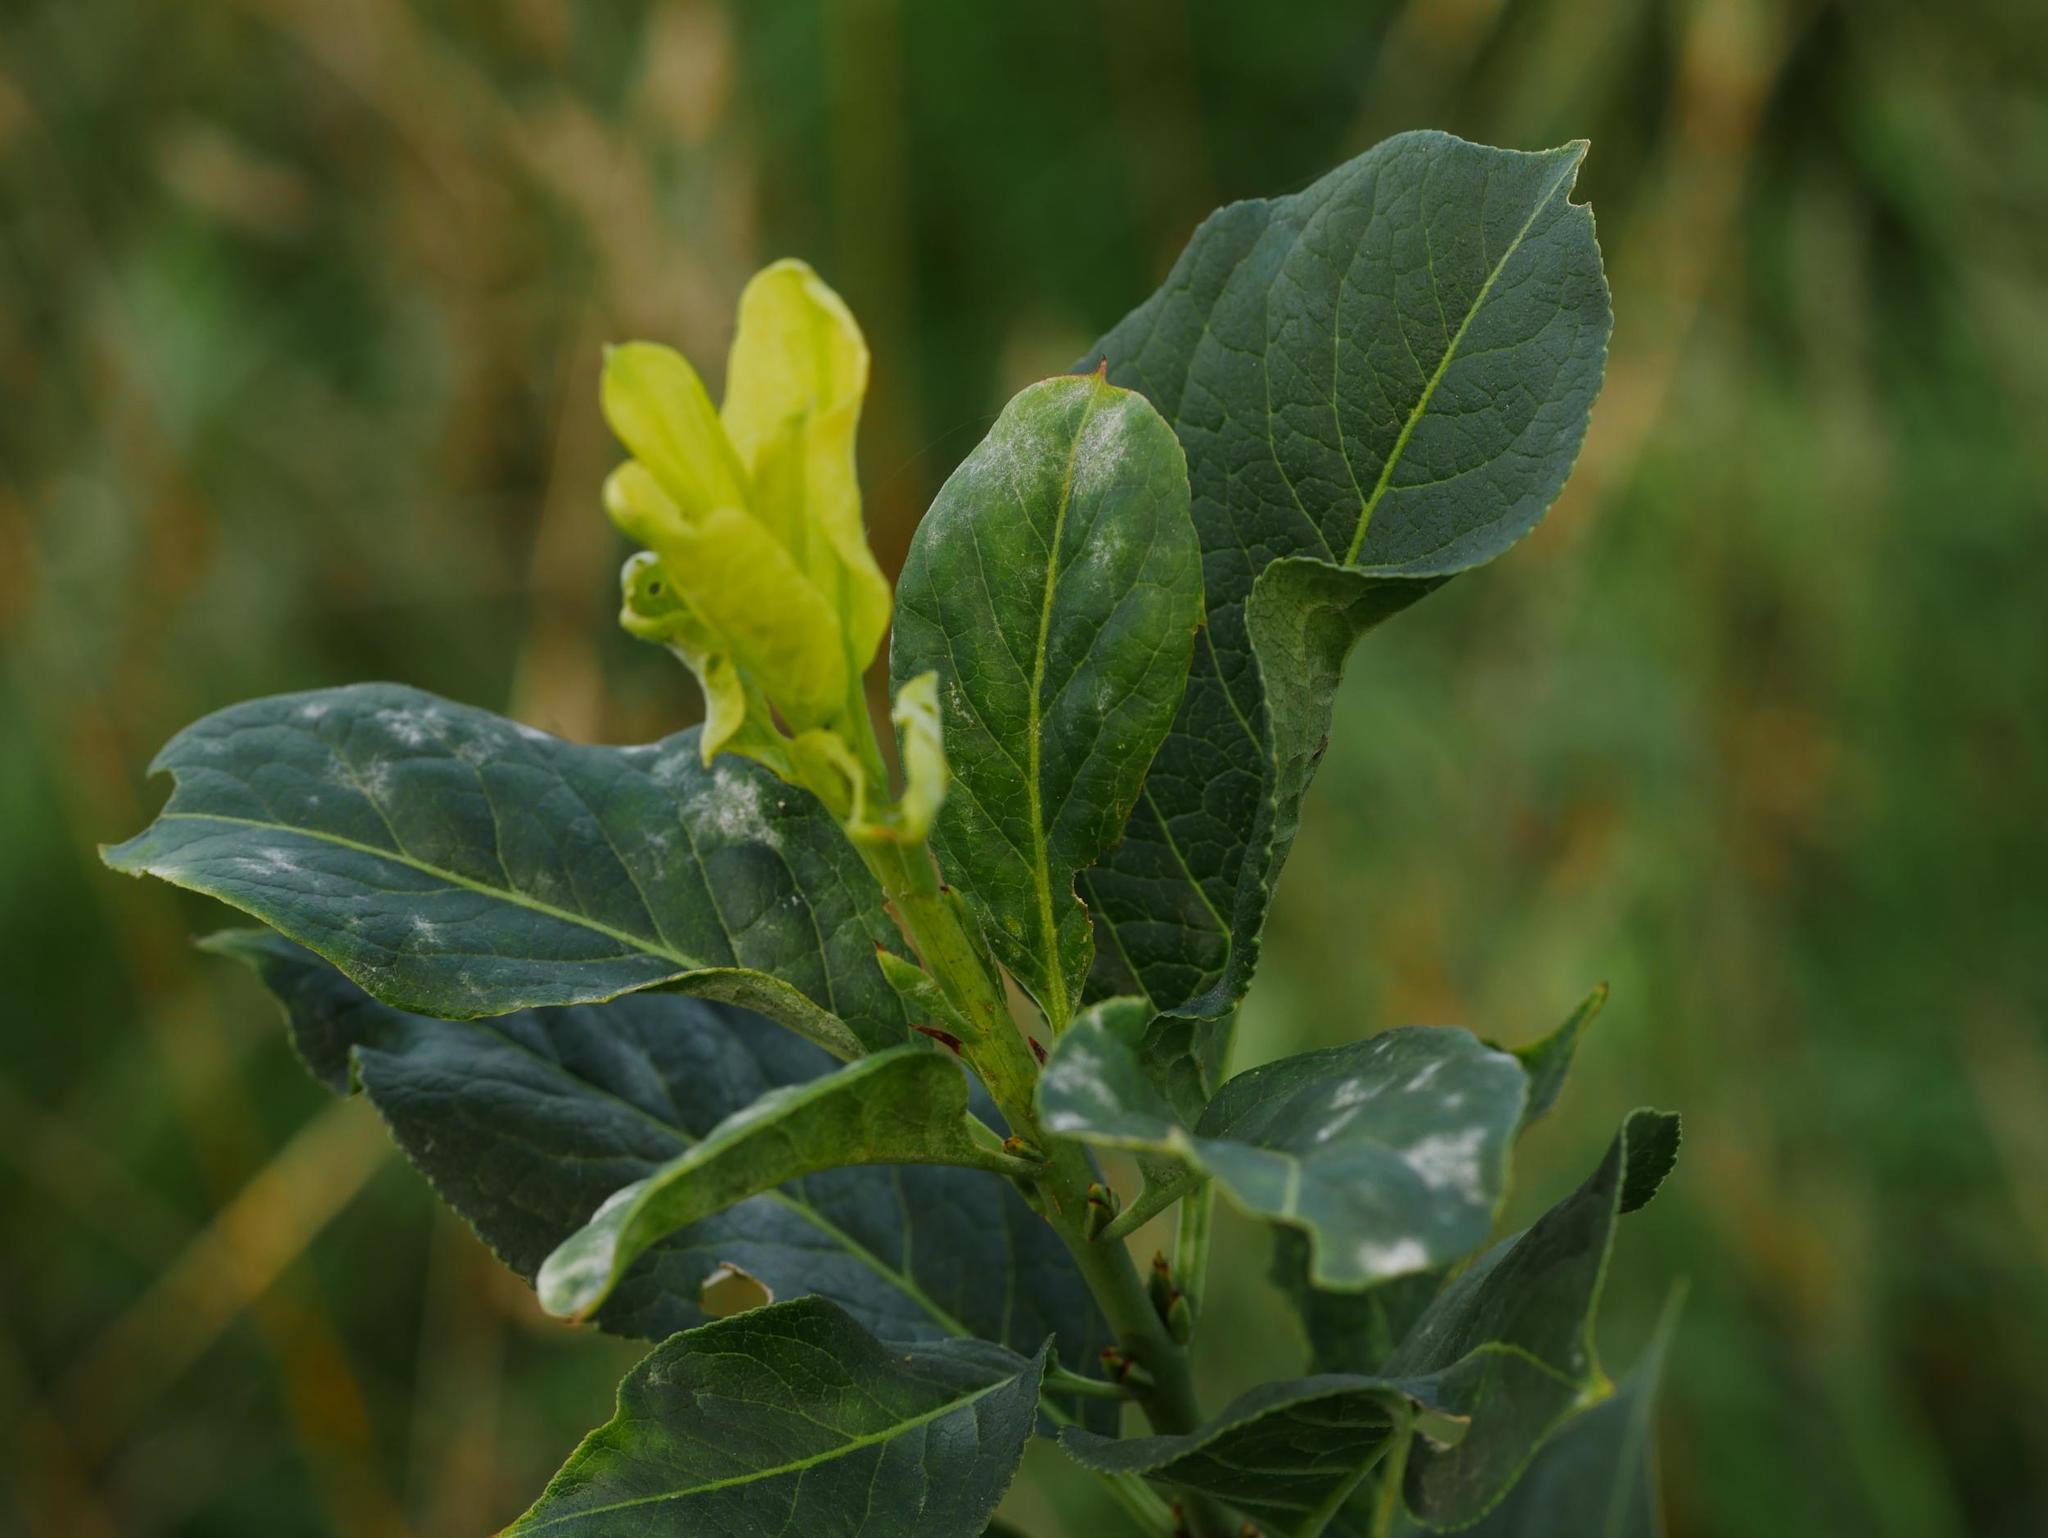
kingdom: Plantae
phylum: Tracheophyta
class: Magnoliopsida
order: Celastrales
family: Celastraceae
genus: Euonymus
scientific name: Euonymus europaeus
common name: Spindle
